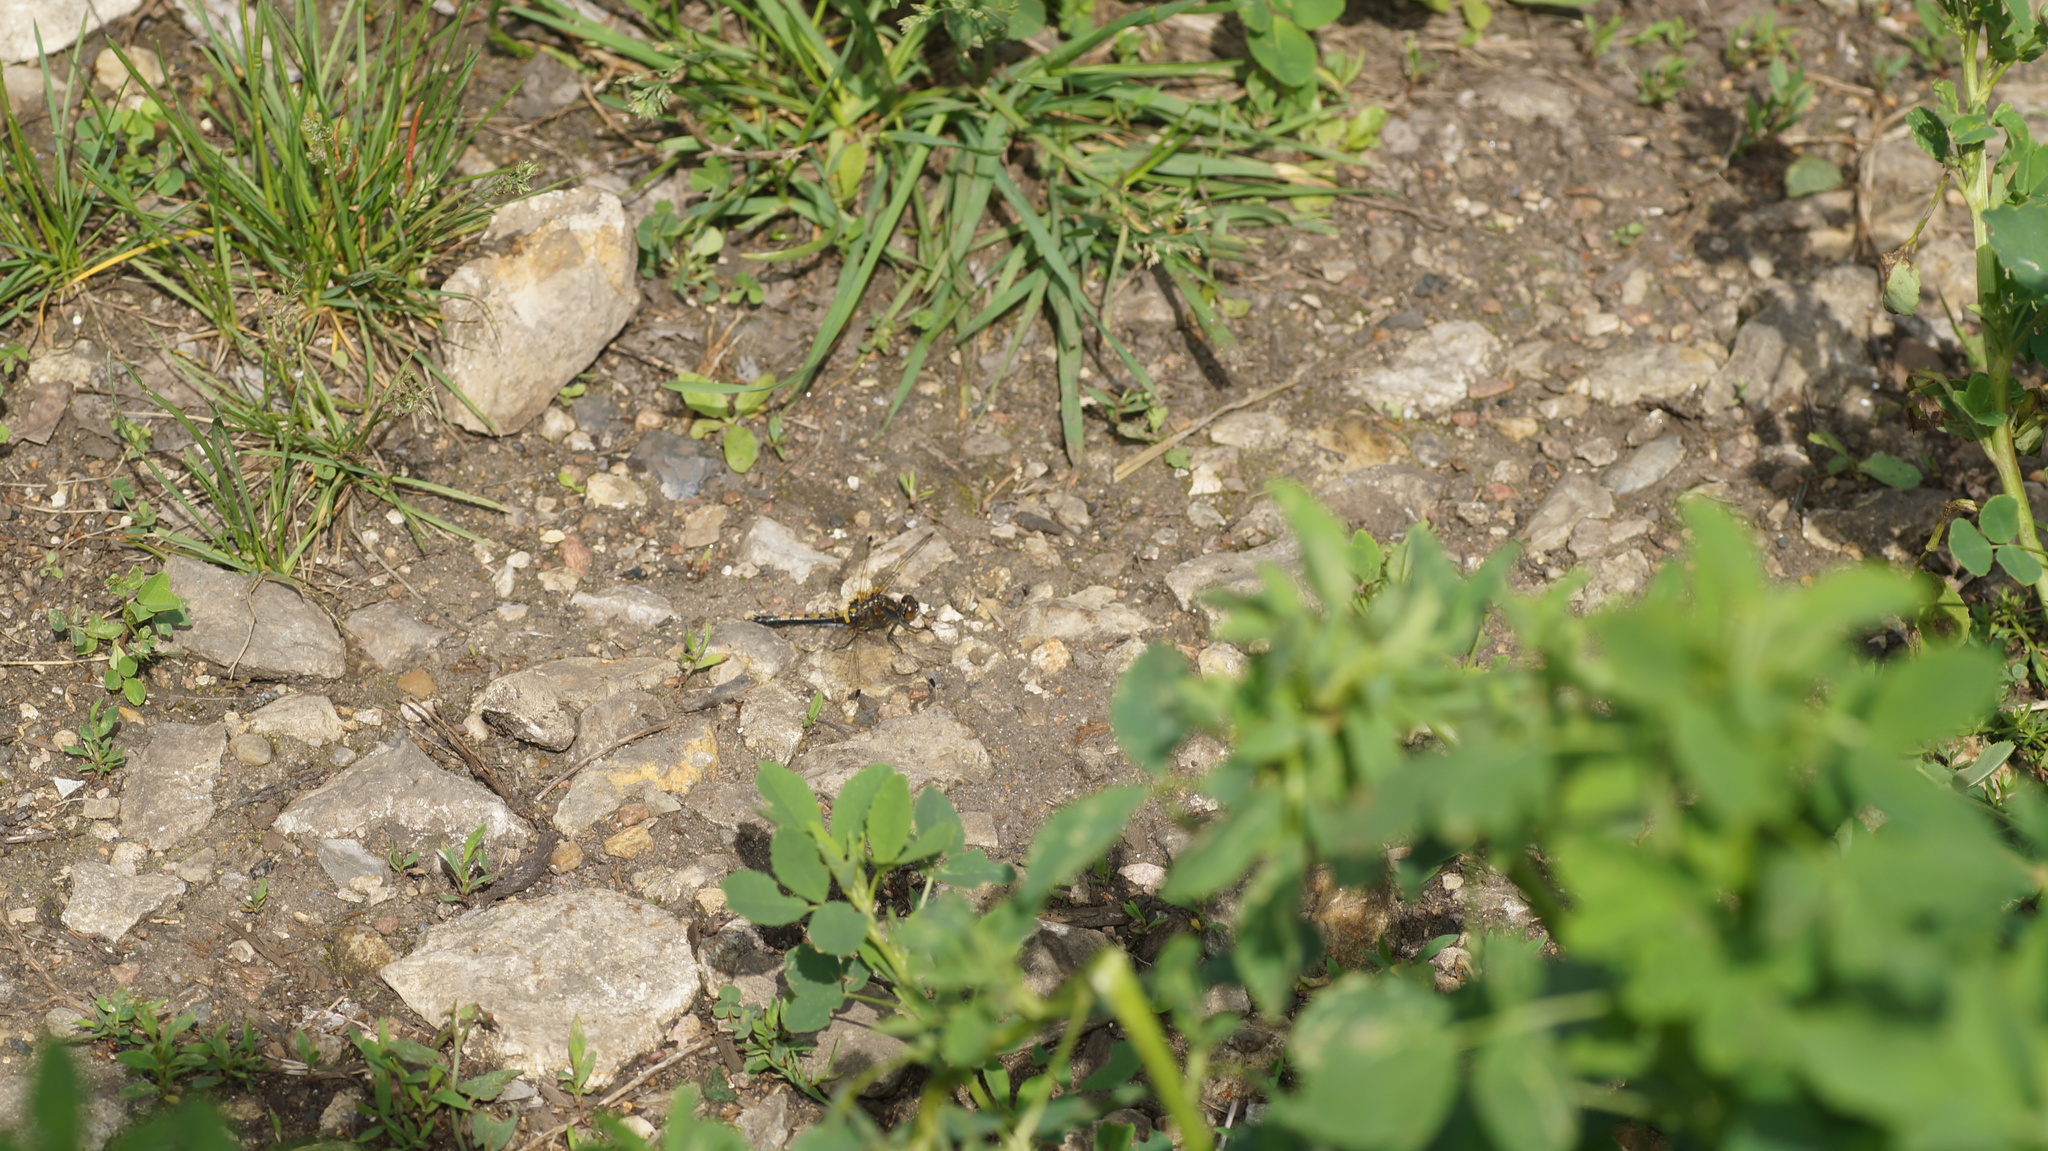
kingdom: Animalia
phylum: Arthropoda
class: Insecta
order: Odonata
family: Libellulidae
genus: Leucorrhinia
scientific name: Leucorrhinia rubicunda
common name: Ruby whiteface
